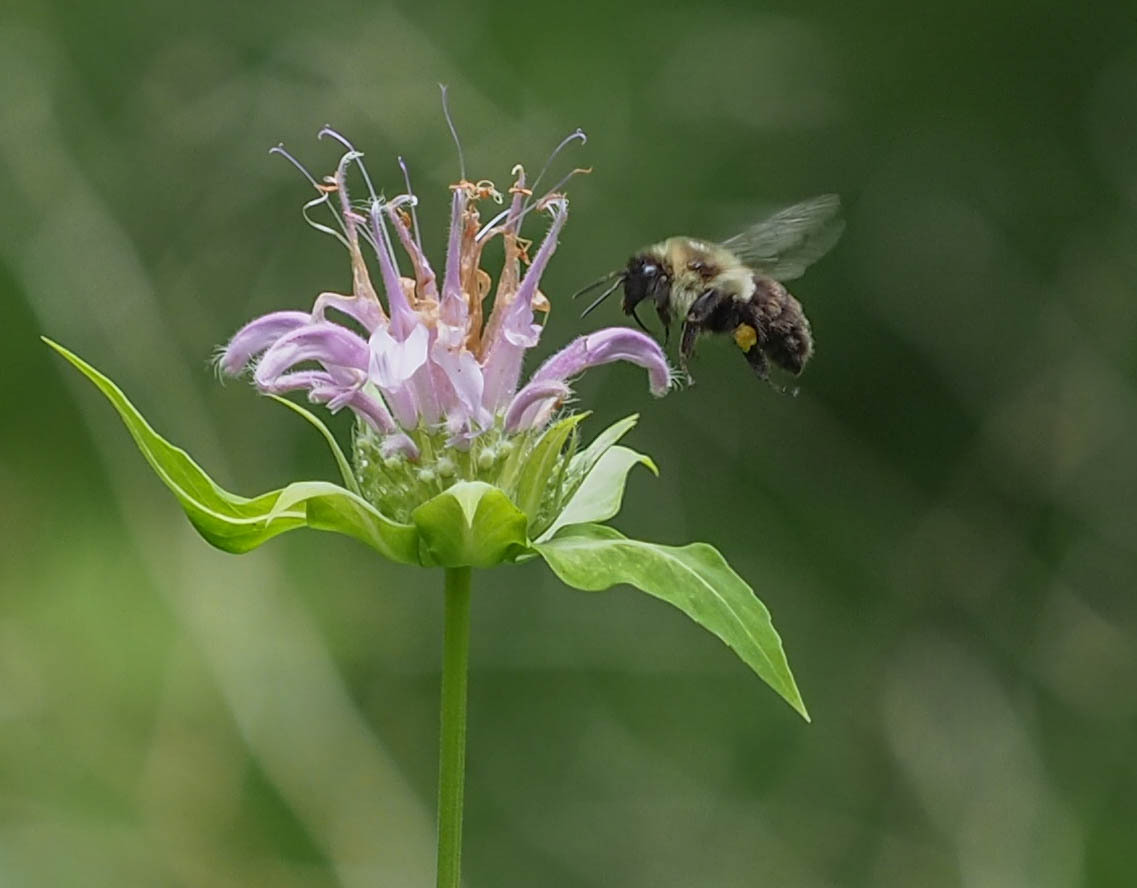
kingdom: Animalia
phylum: Arthropoda
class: Insecta
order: Hymenoptera
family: Apidae
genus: Bombus
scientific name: Bombus impatiens
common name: Common eastern bumble bee
